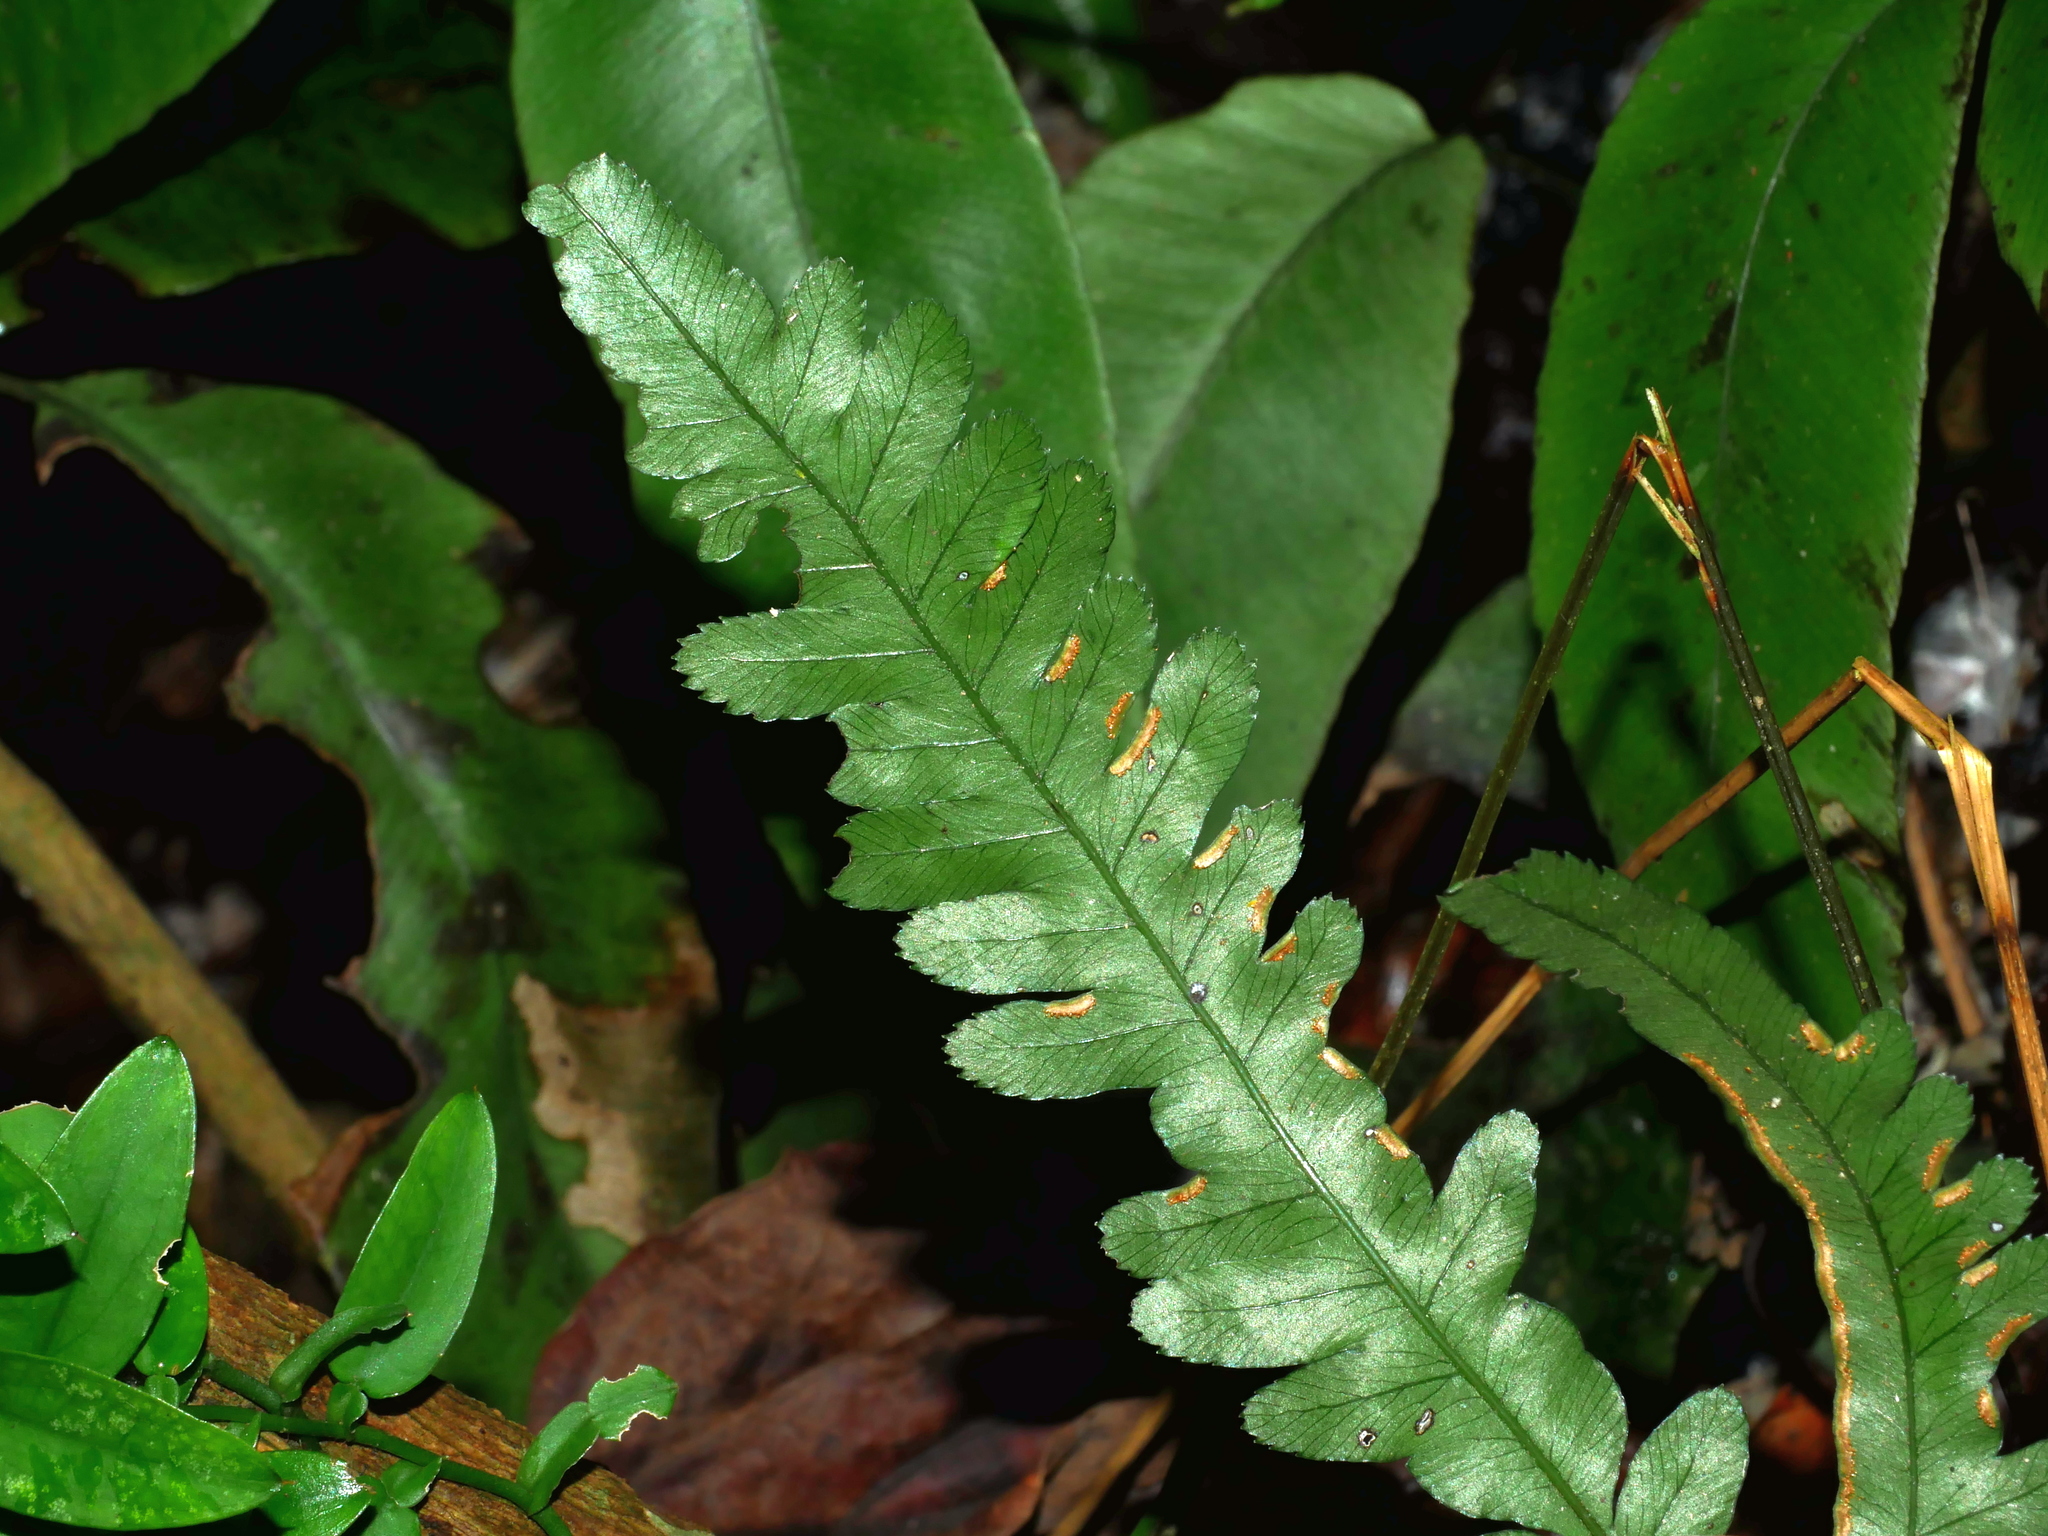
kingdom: Plantae
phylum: Tracheophyta
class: Polypodiopsida
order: Polypodiales
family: Pteridaceae
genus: Pteris
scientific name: Pteris dimorpha
